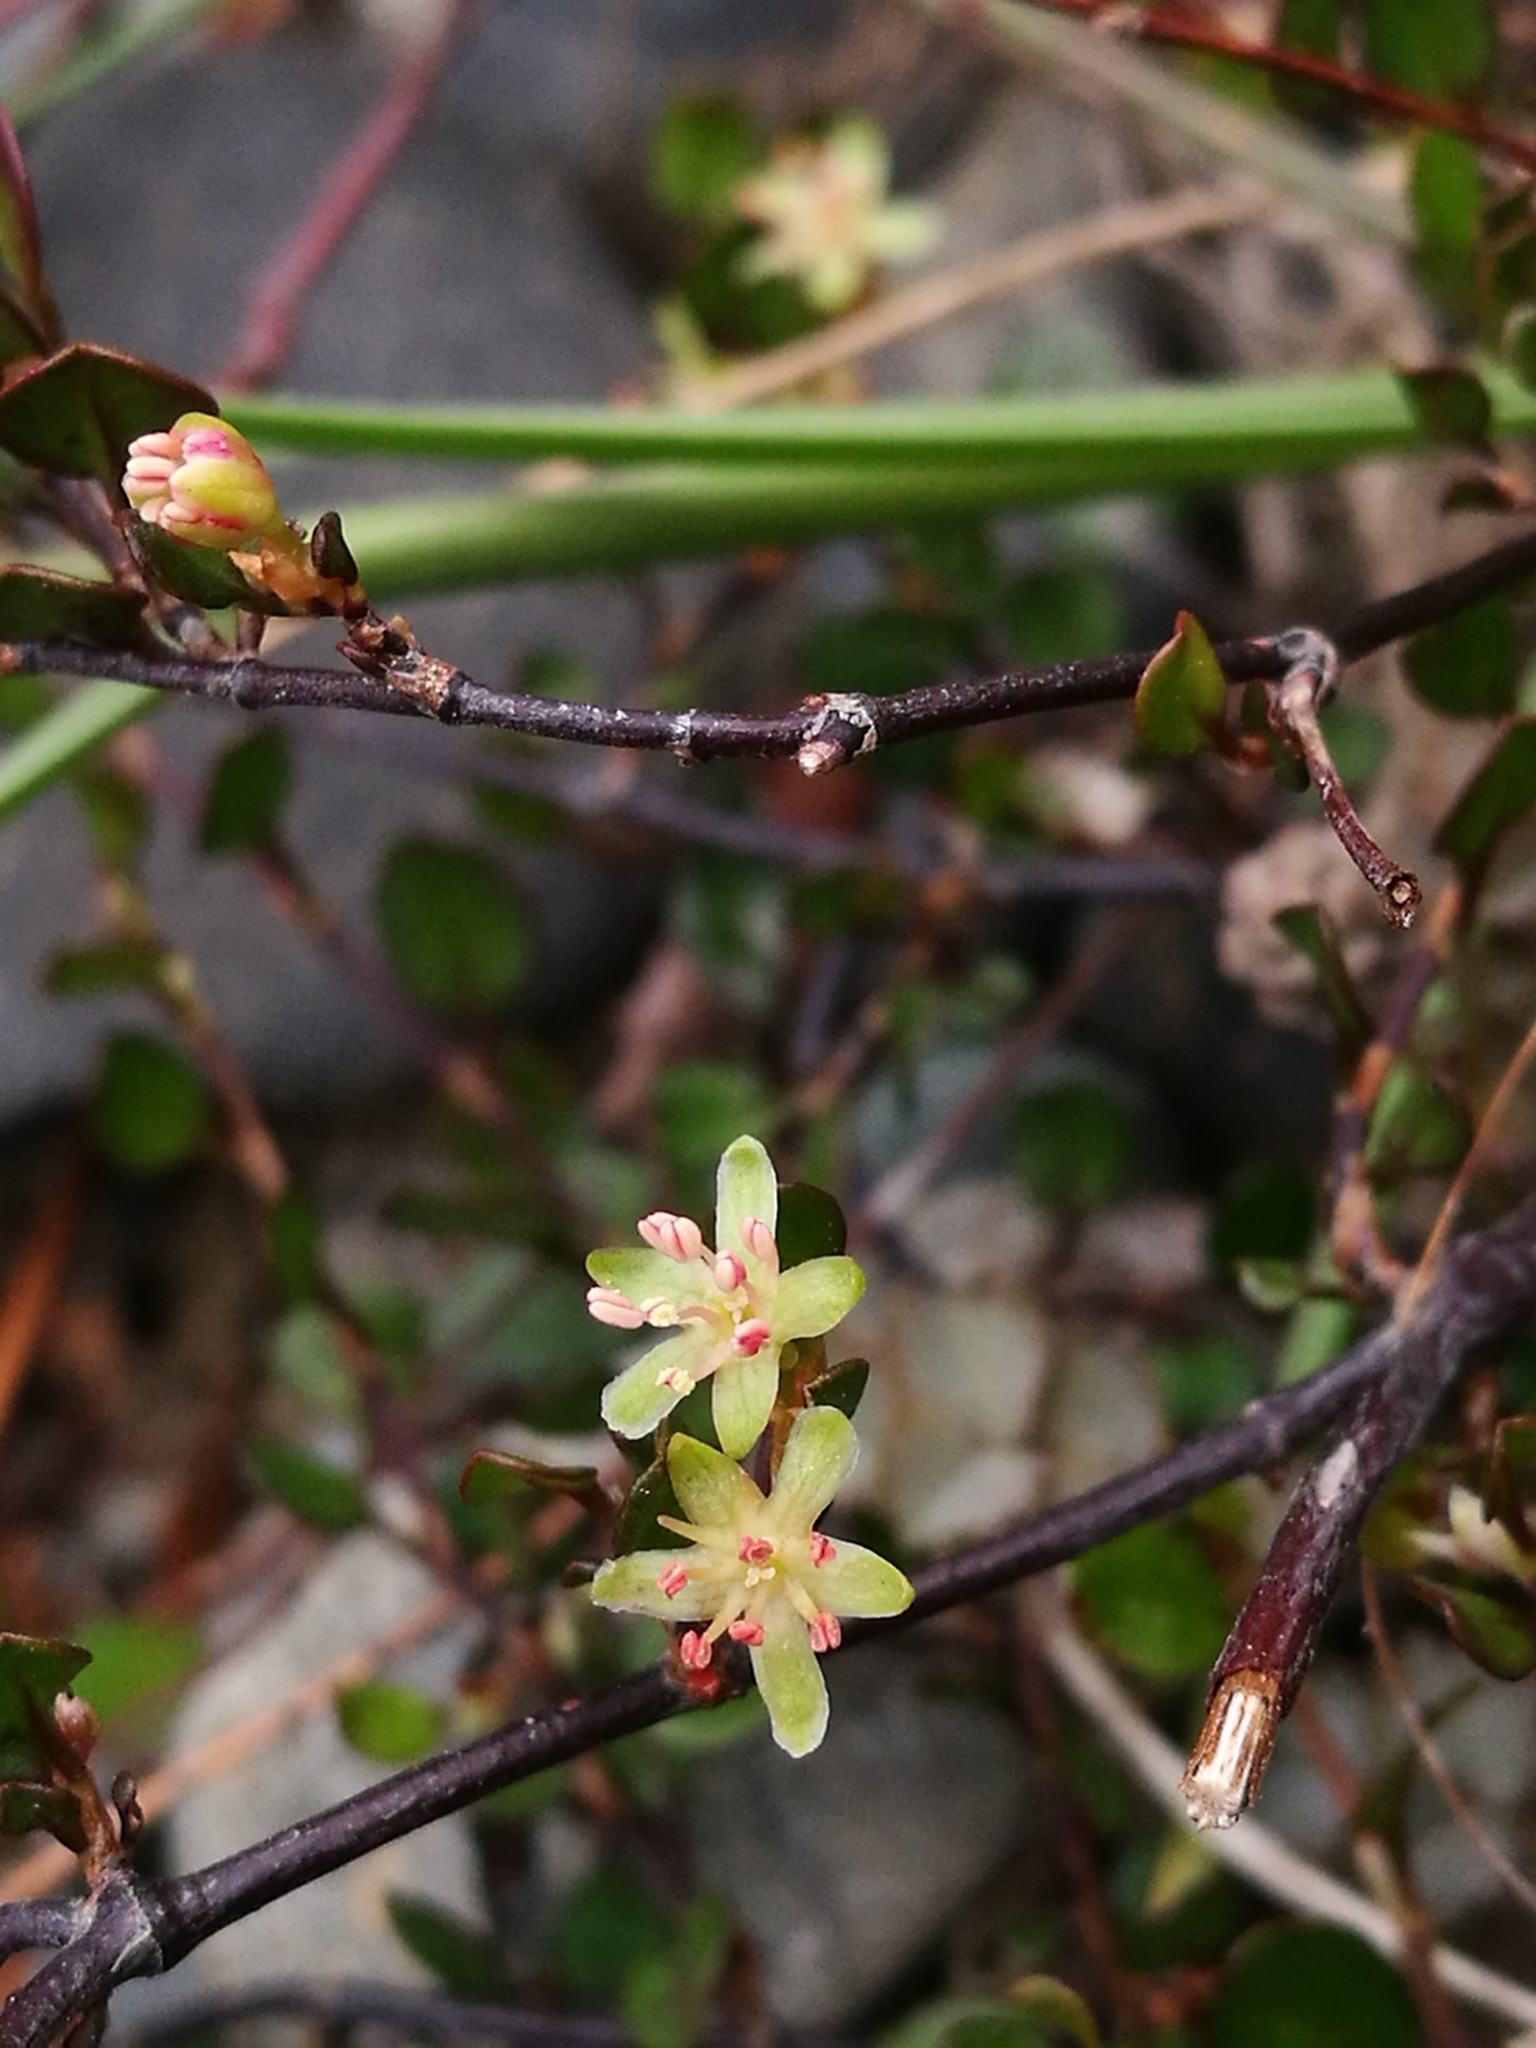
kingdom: Plantae
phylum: Tracheophyta
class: Magnoliopsida
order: Caryophyllales
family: Polygonaceae
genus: Muehlenbeckia
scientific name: Muehlenbeckia axillaris
